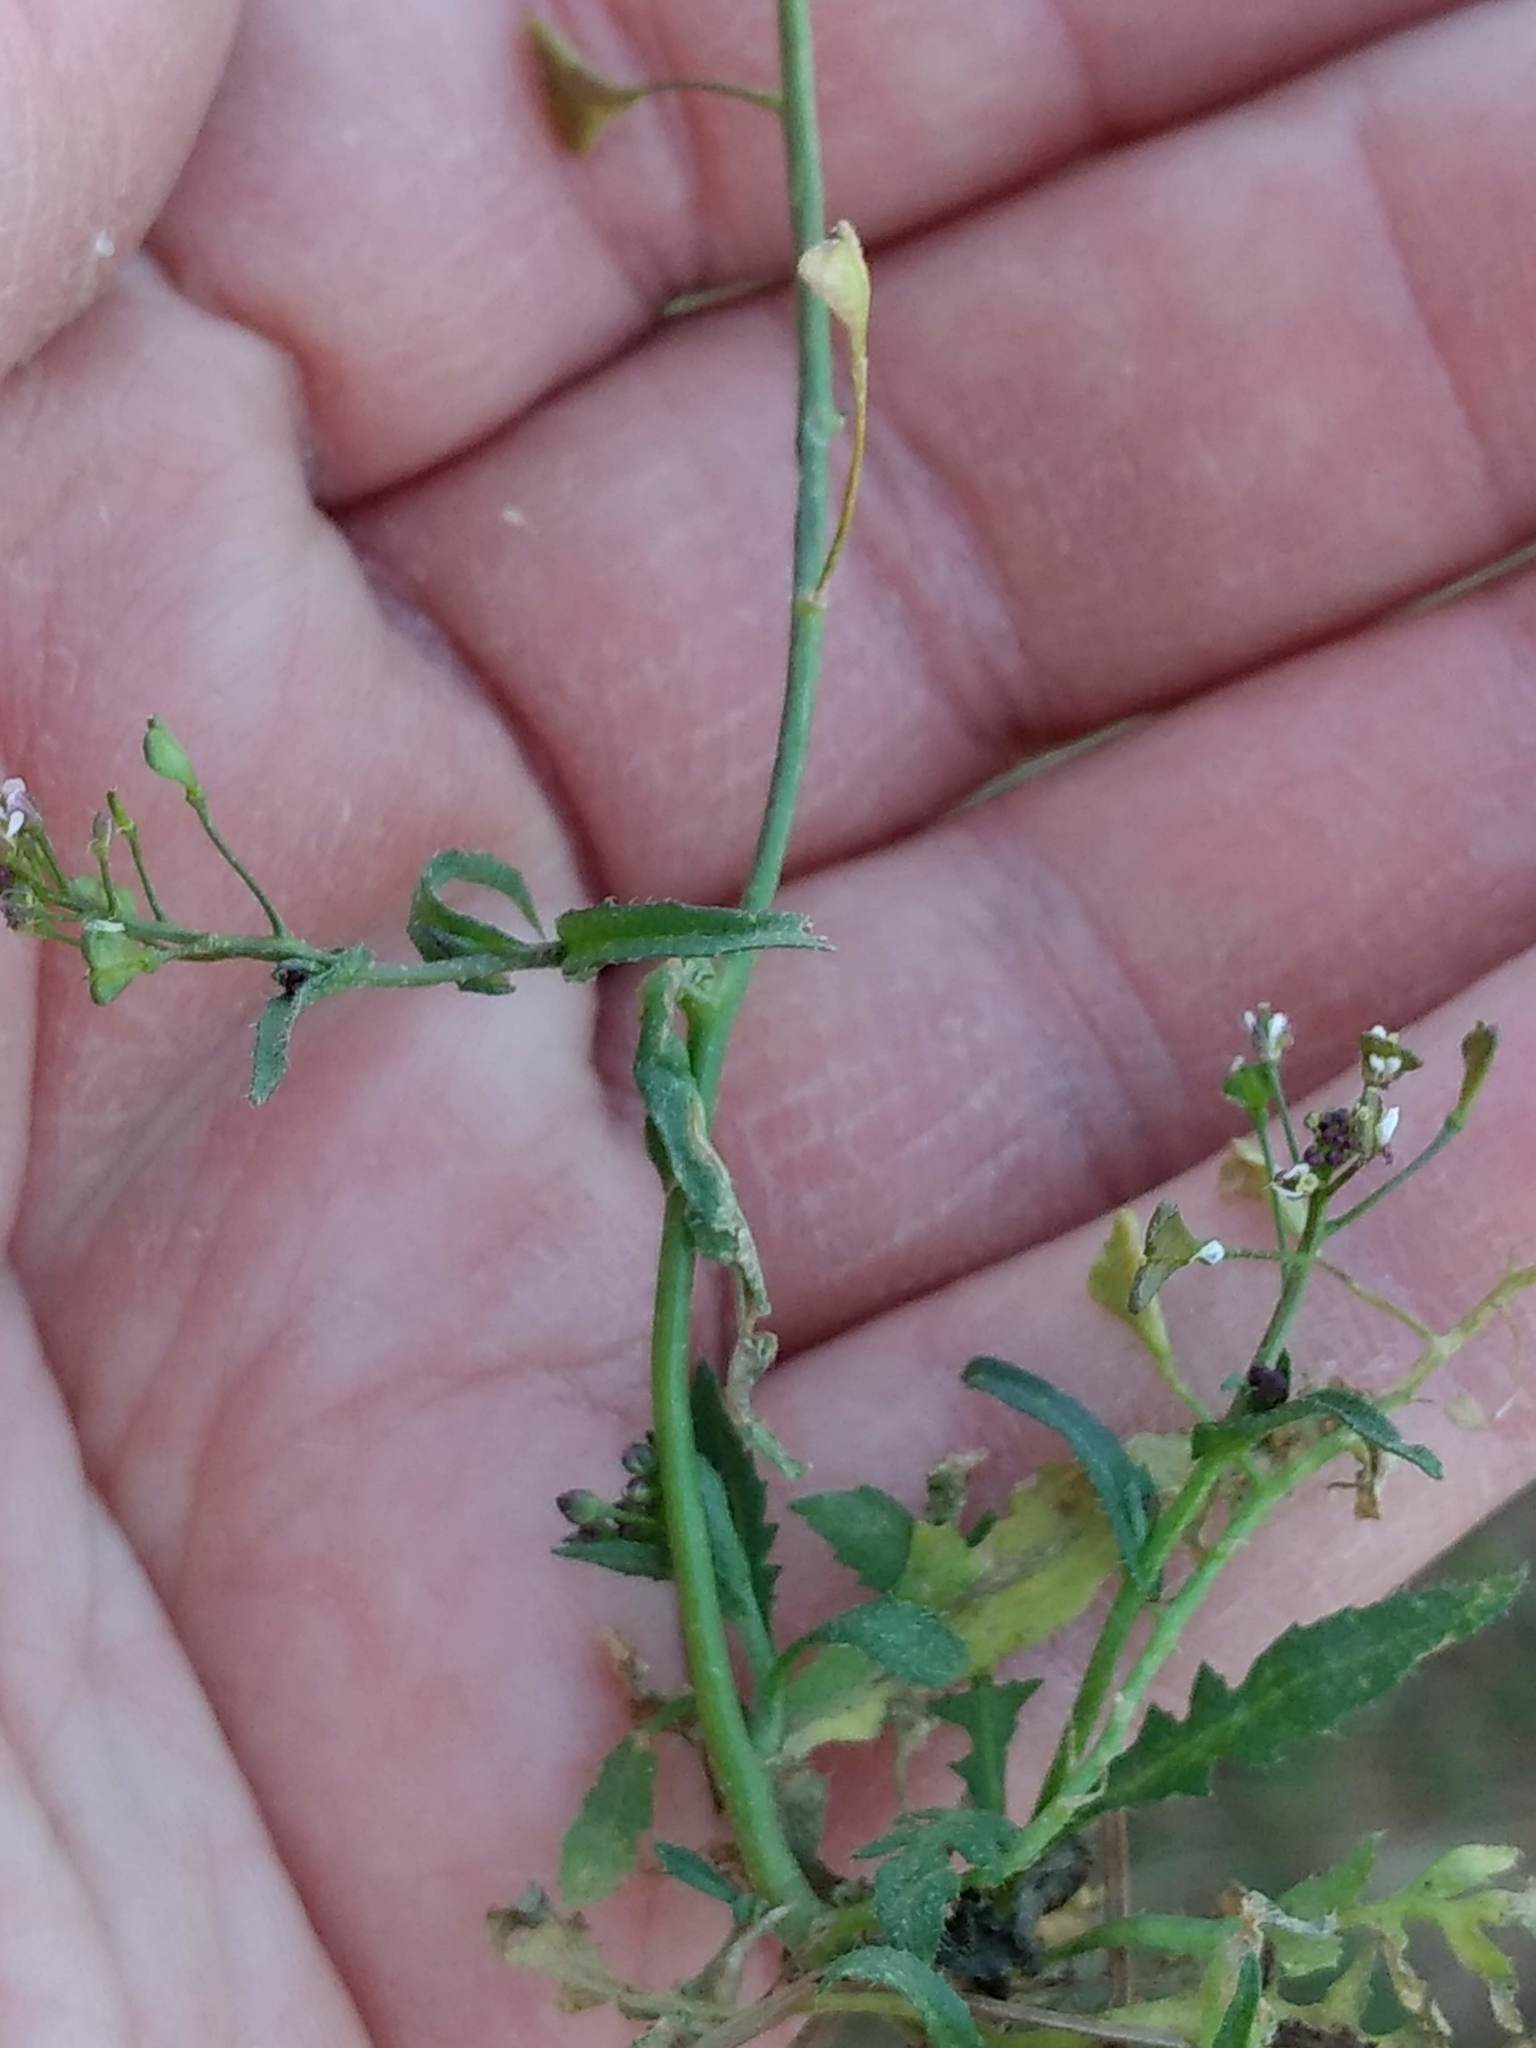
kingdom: Plantae
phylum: Tracheophyta
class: Magnoliopsida
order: Brassicales
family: Brassicaceae
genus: Capsella
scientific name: Capsella bursa-pastoris
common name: Shepherd's purse
